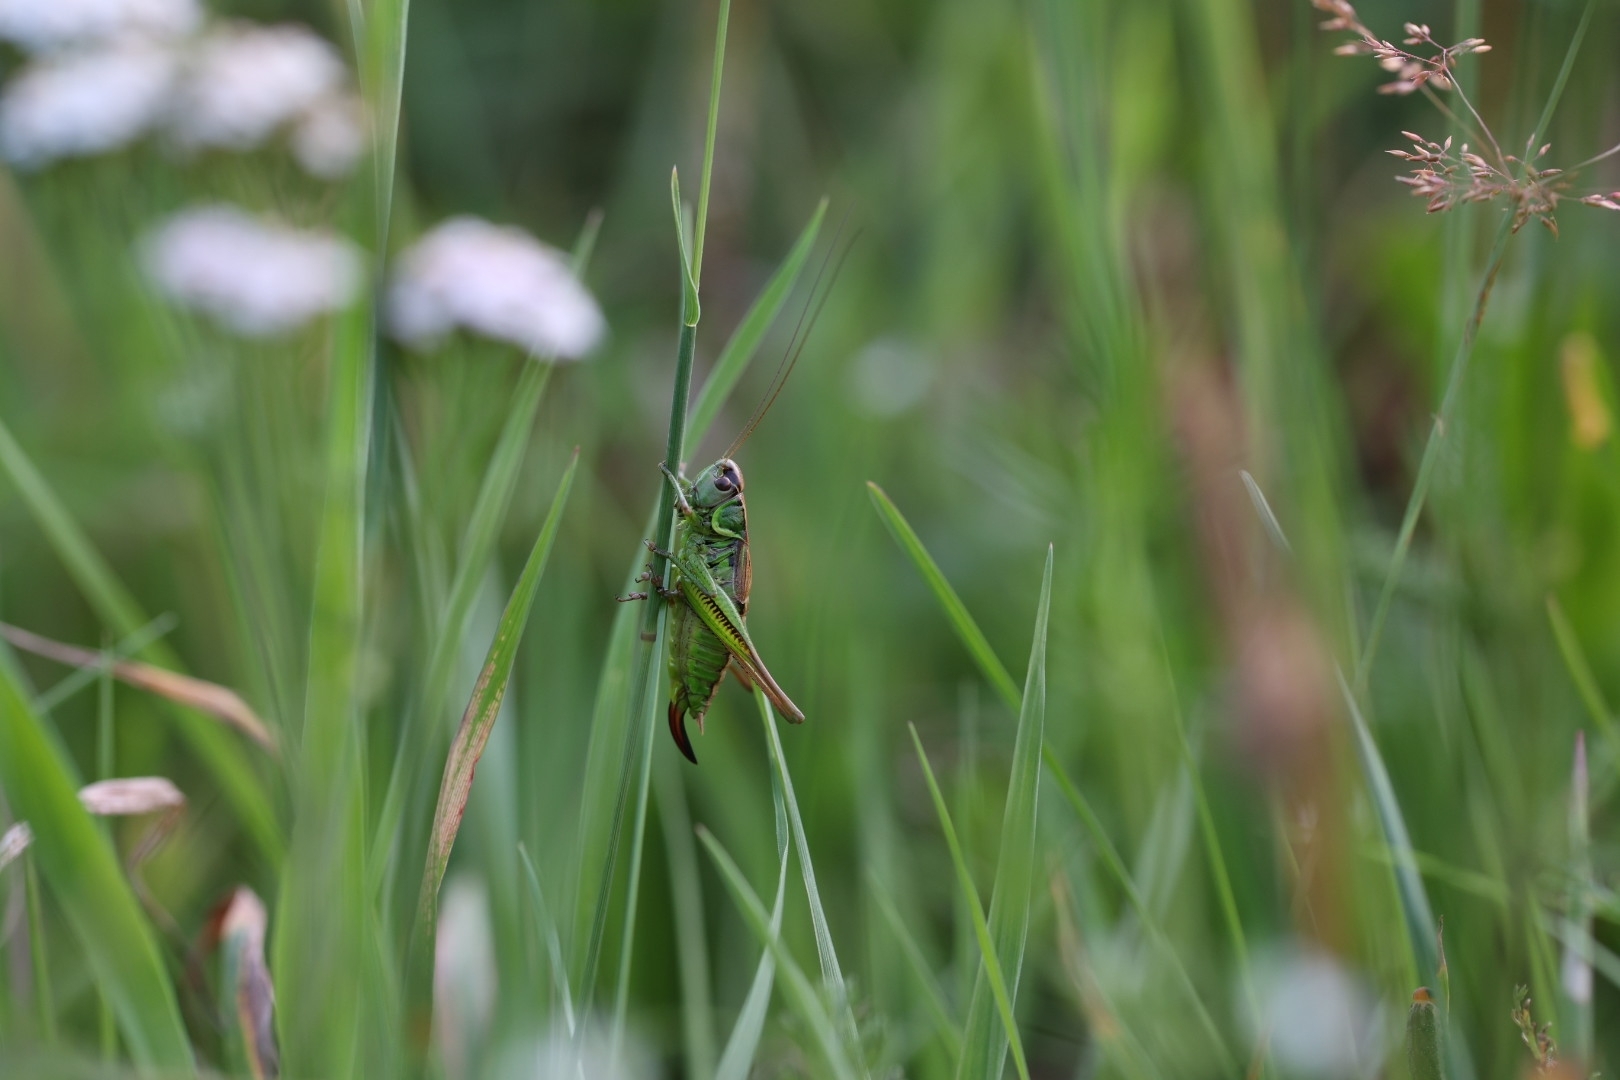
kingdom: Animalia
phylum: Arthropoda
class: Insecta
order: Orthoptera
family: Tettigoniidae
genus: Roeseliana
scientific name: Roeseliana roeselii
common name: Roesel's bush cricket
